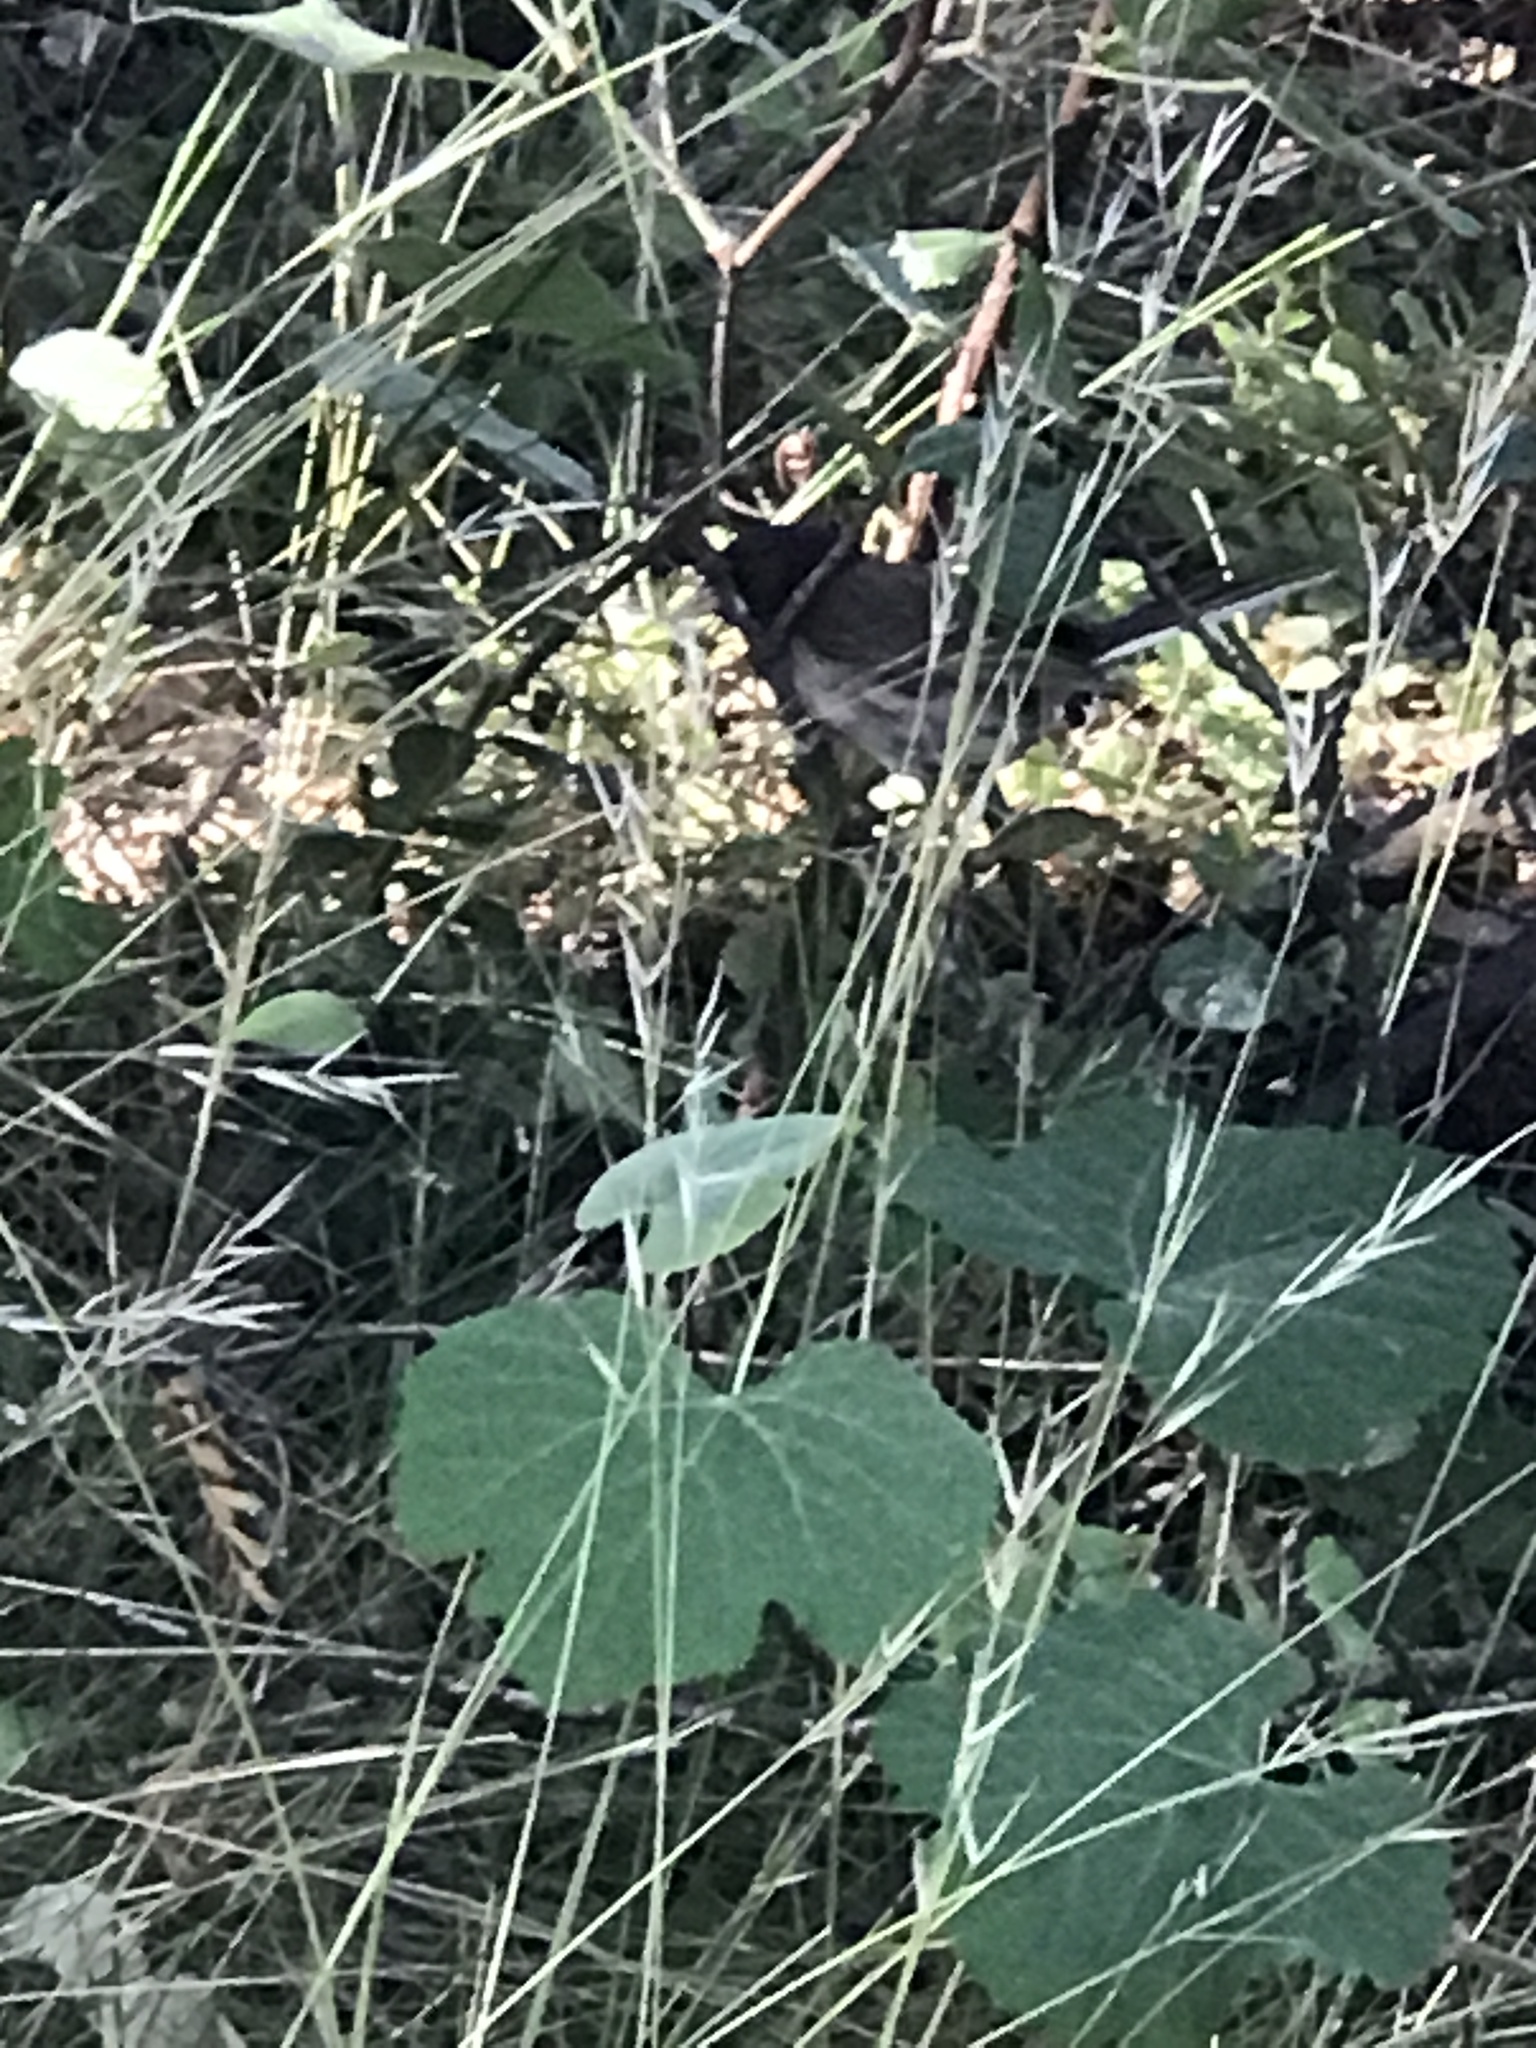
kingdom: Animalia
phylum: Chordata
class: Aves
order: Passeriformes
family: Passerellidae
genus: Junco
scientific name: Junco hyemalis
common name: Dark-eyed junco
